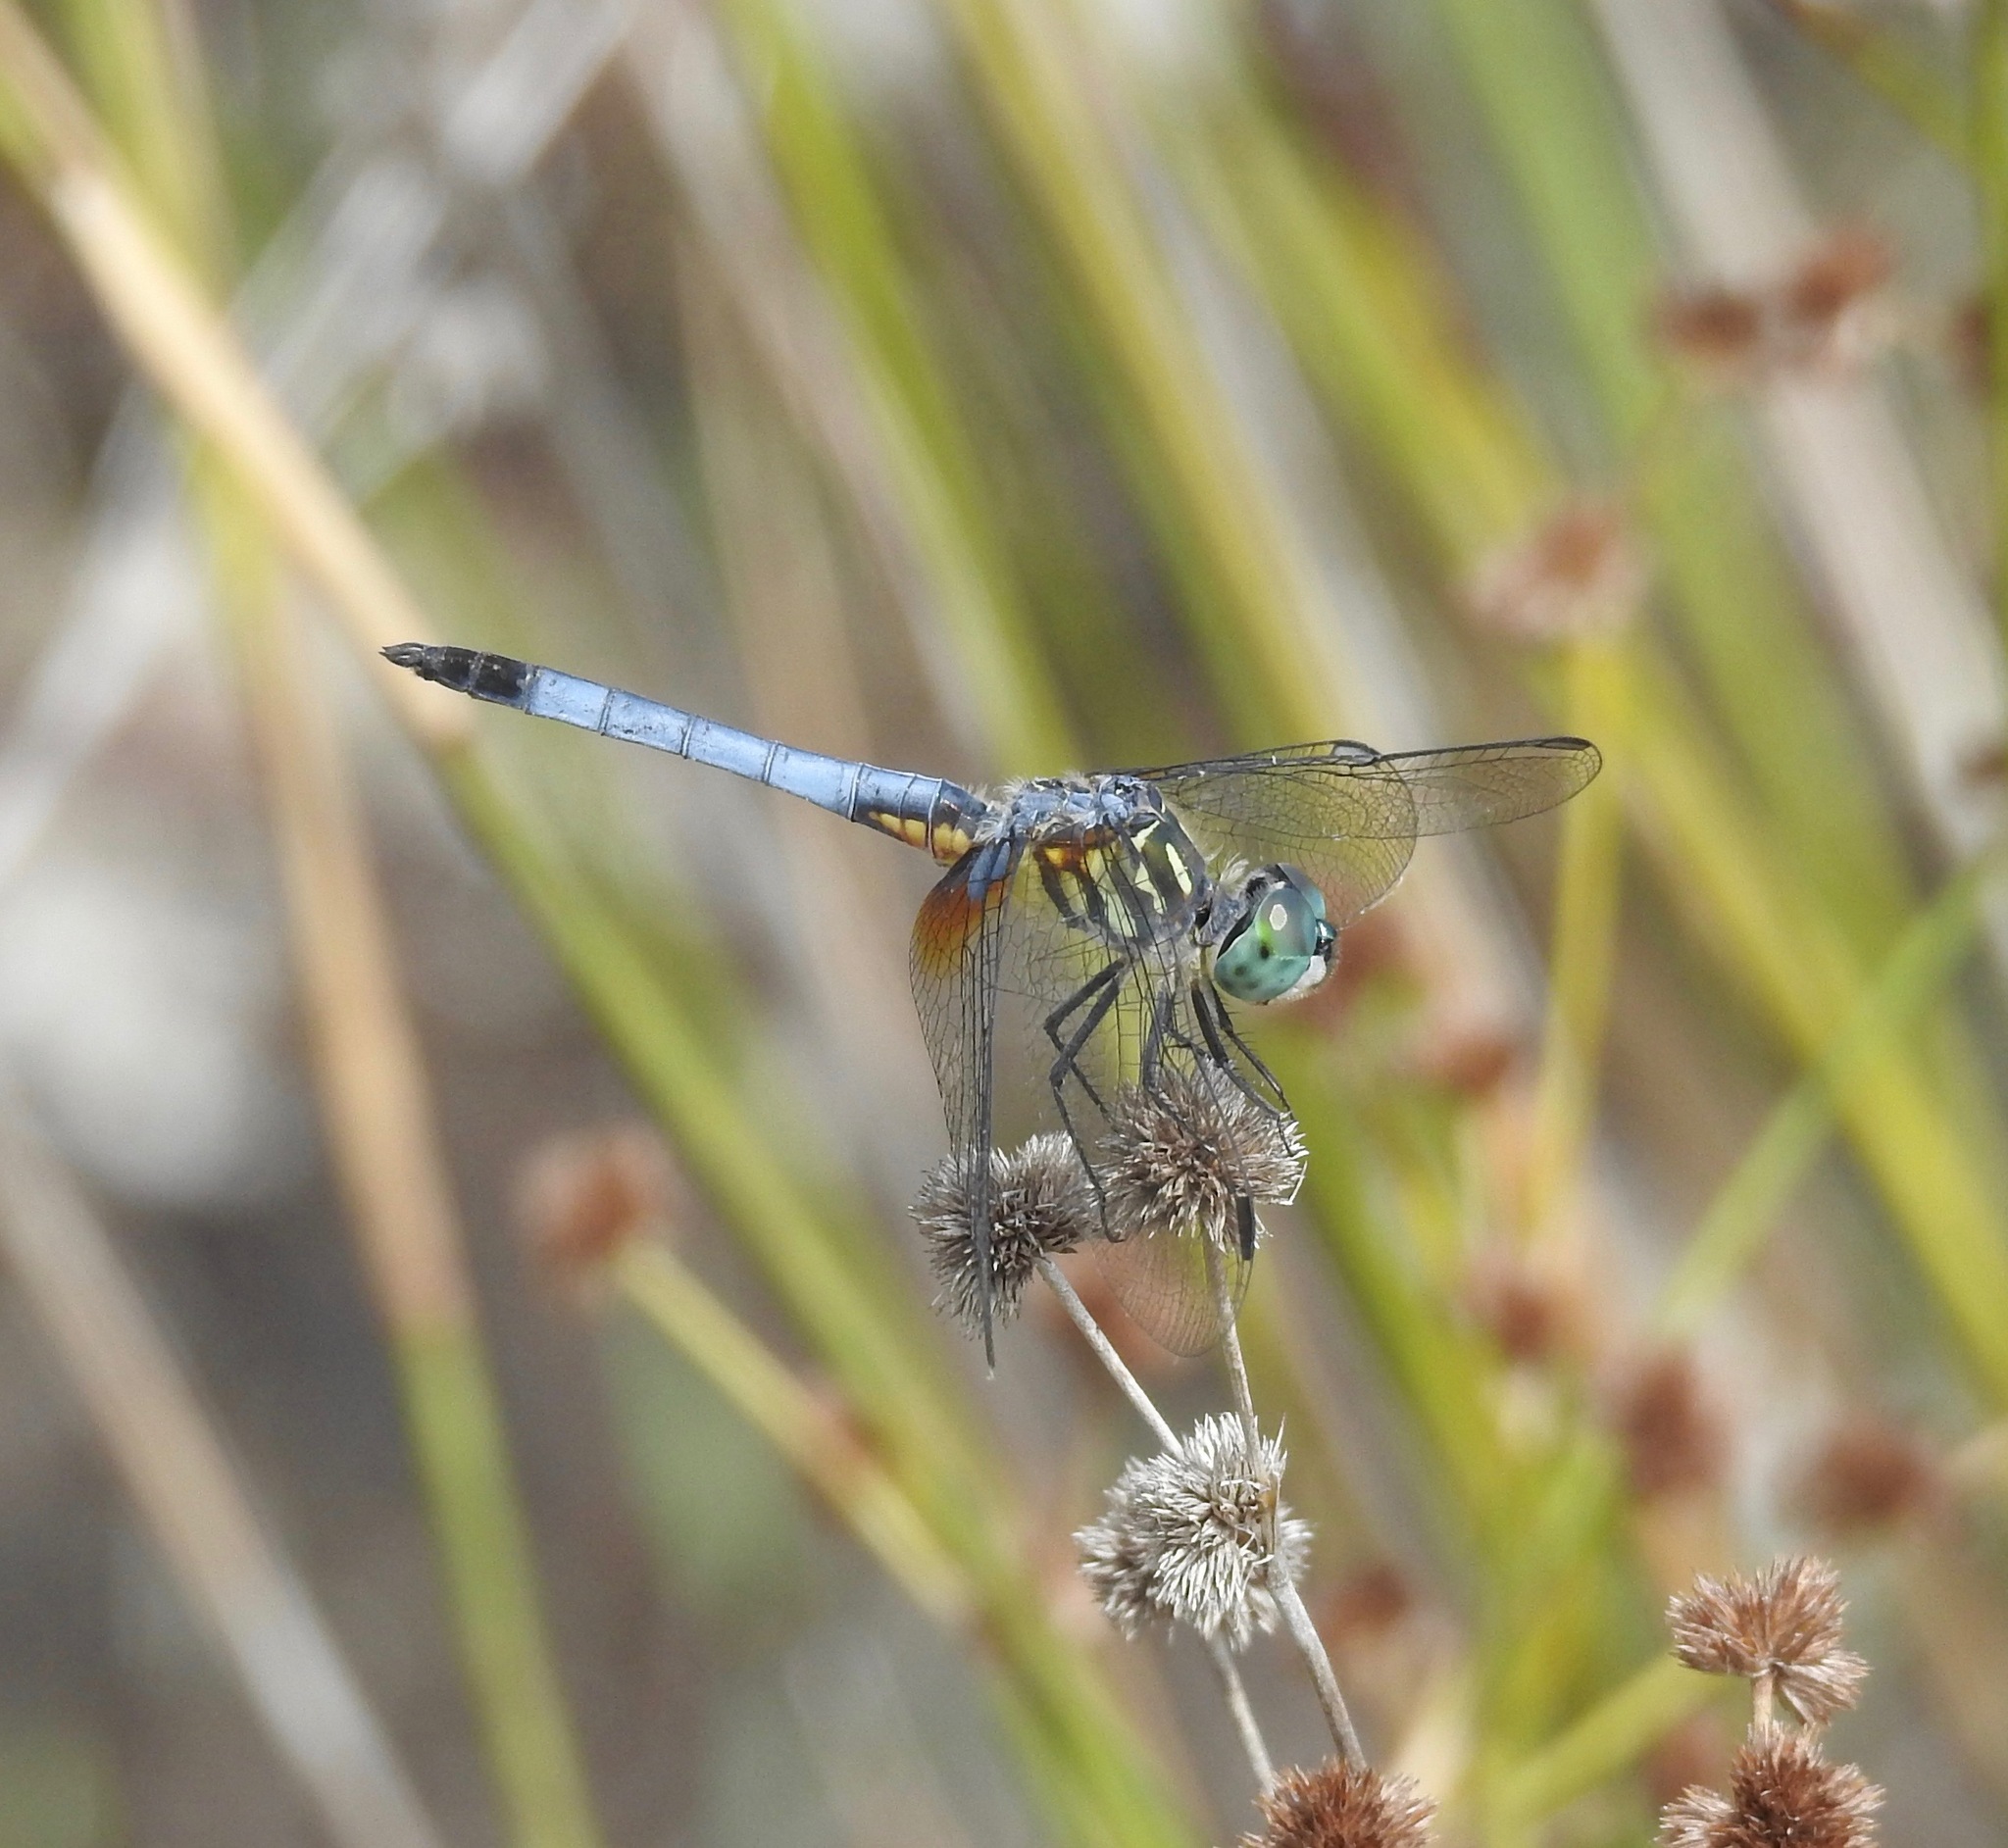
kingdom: Animalia
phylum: Arthropoda
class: Insecta
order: Odonata
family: Libellulidae
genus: Pachydiplax
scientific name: Pachydiplax longipennis
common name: Blue dasher
